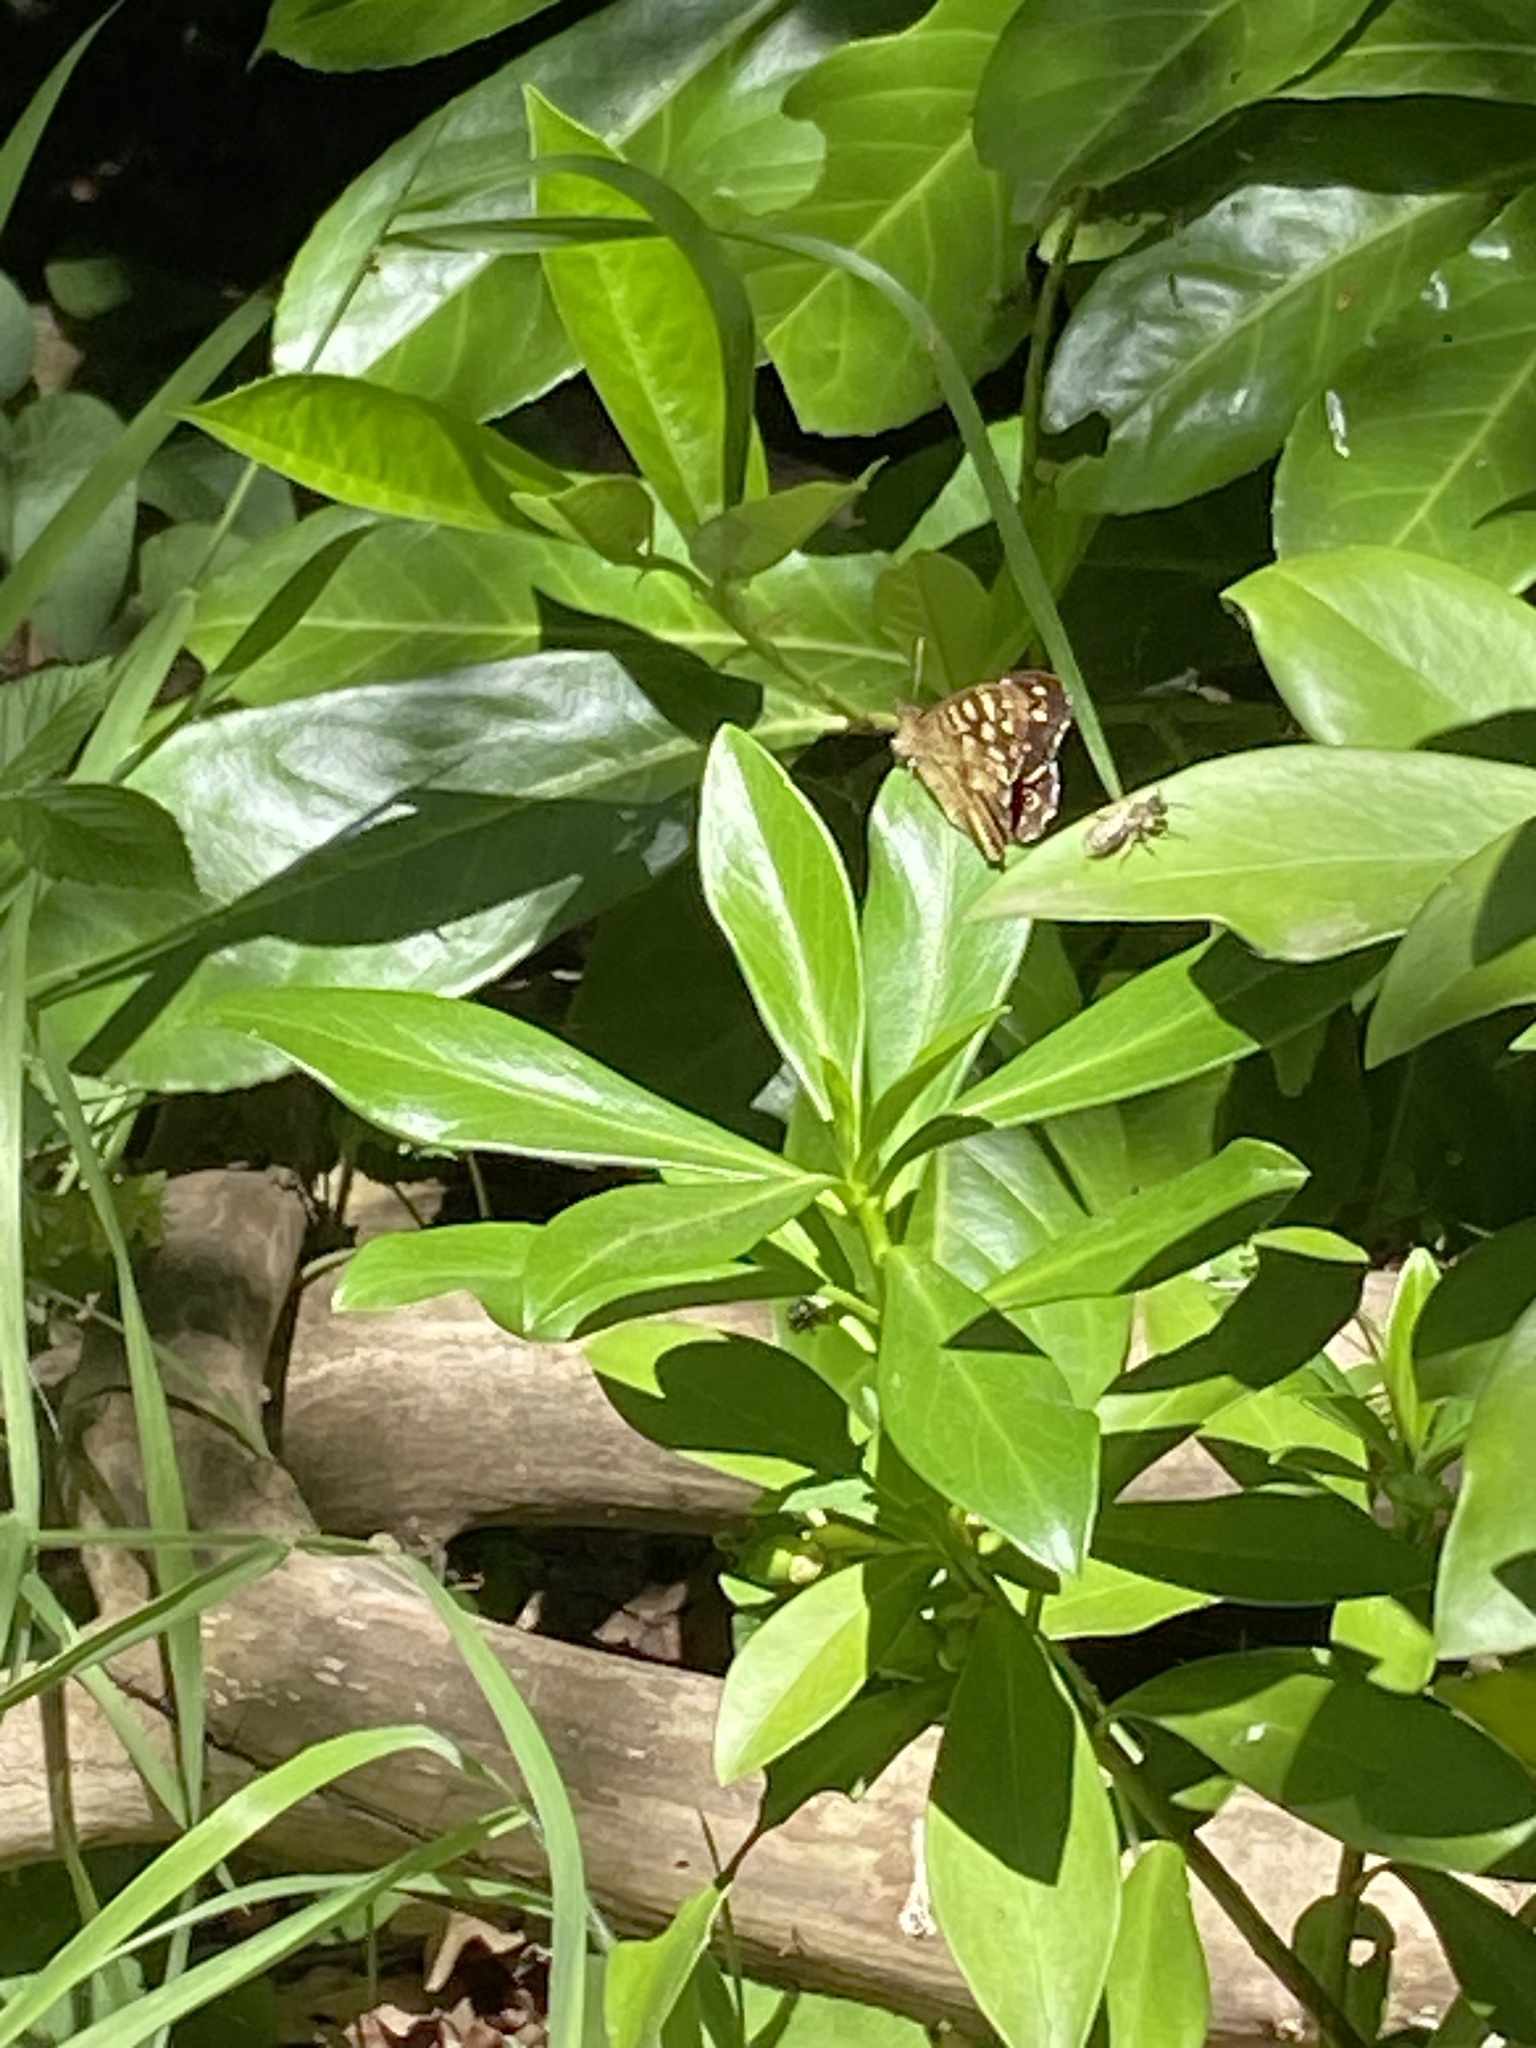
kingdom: Animalia
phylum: Arthropoda
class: Insecta
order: Lepidoptera
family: Nymphalidae
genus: Pararge
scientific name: Pararge aegeria
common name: Speckled wood
